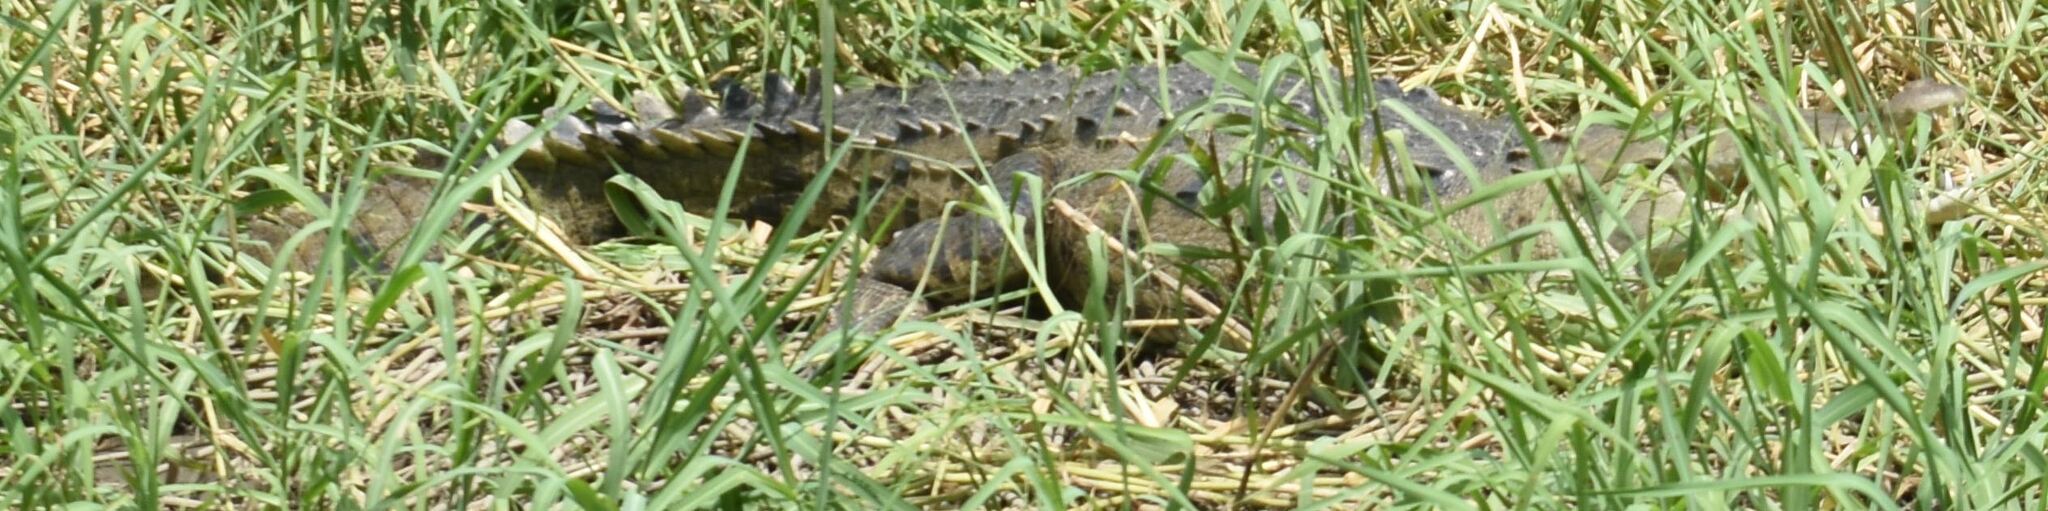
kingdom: Animalia
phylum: Chordata
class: Crocodylia
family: Crocodylidae
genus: Crocodylus
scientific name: Crocodylus acutus
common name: American crocodile
